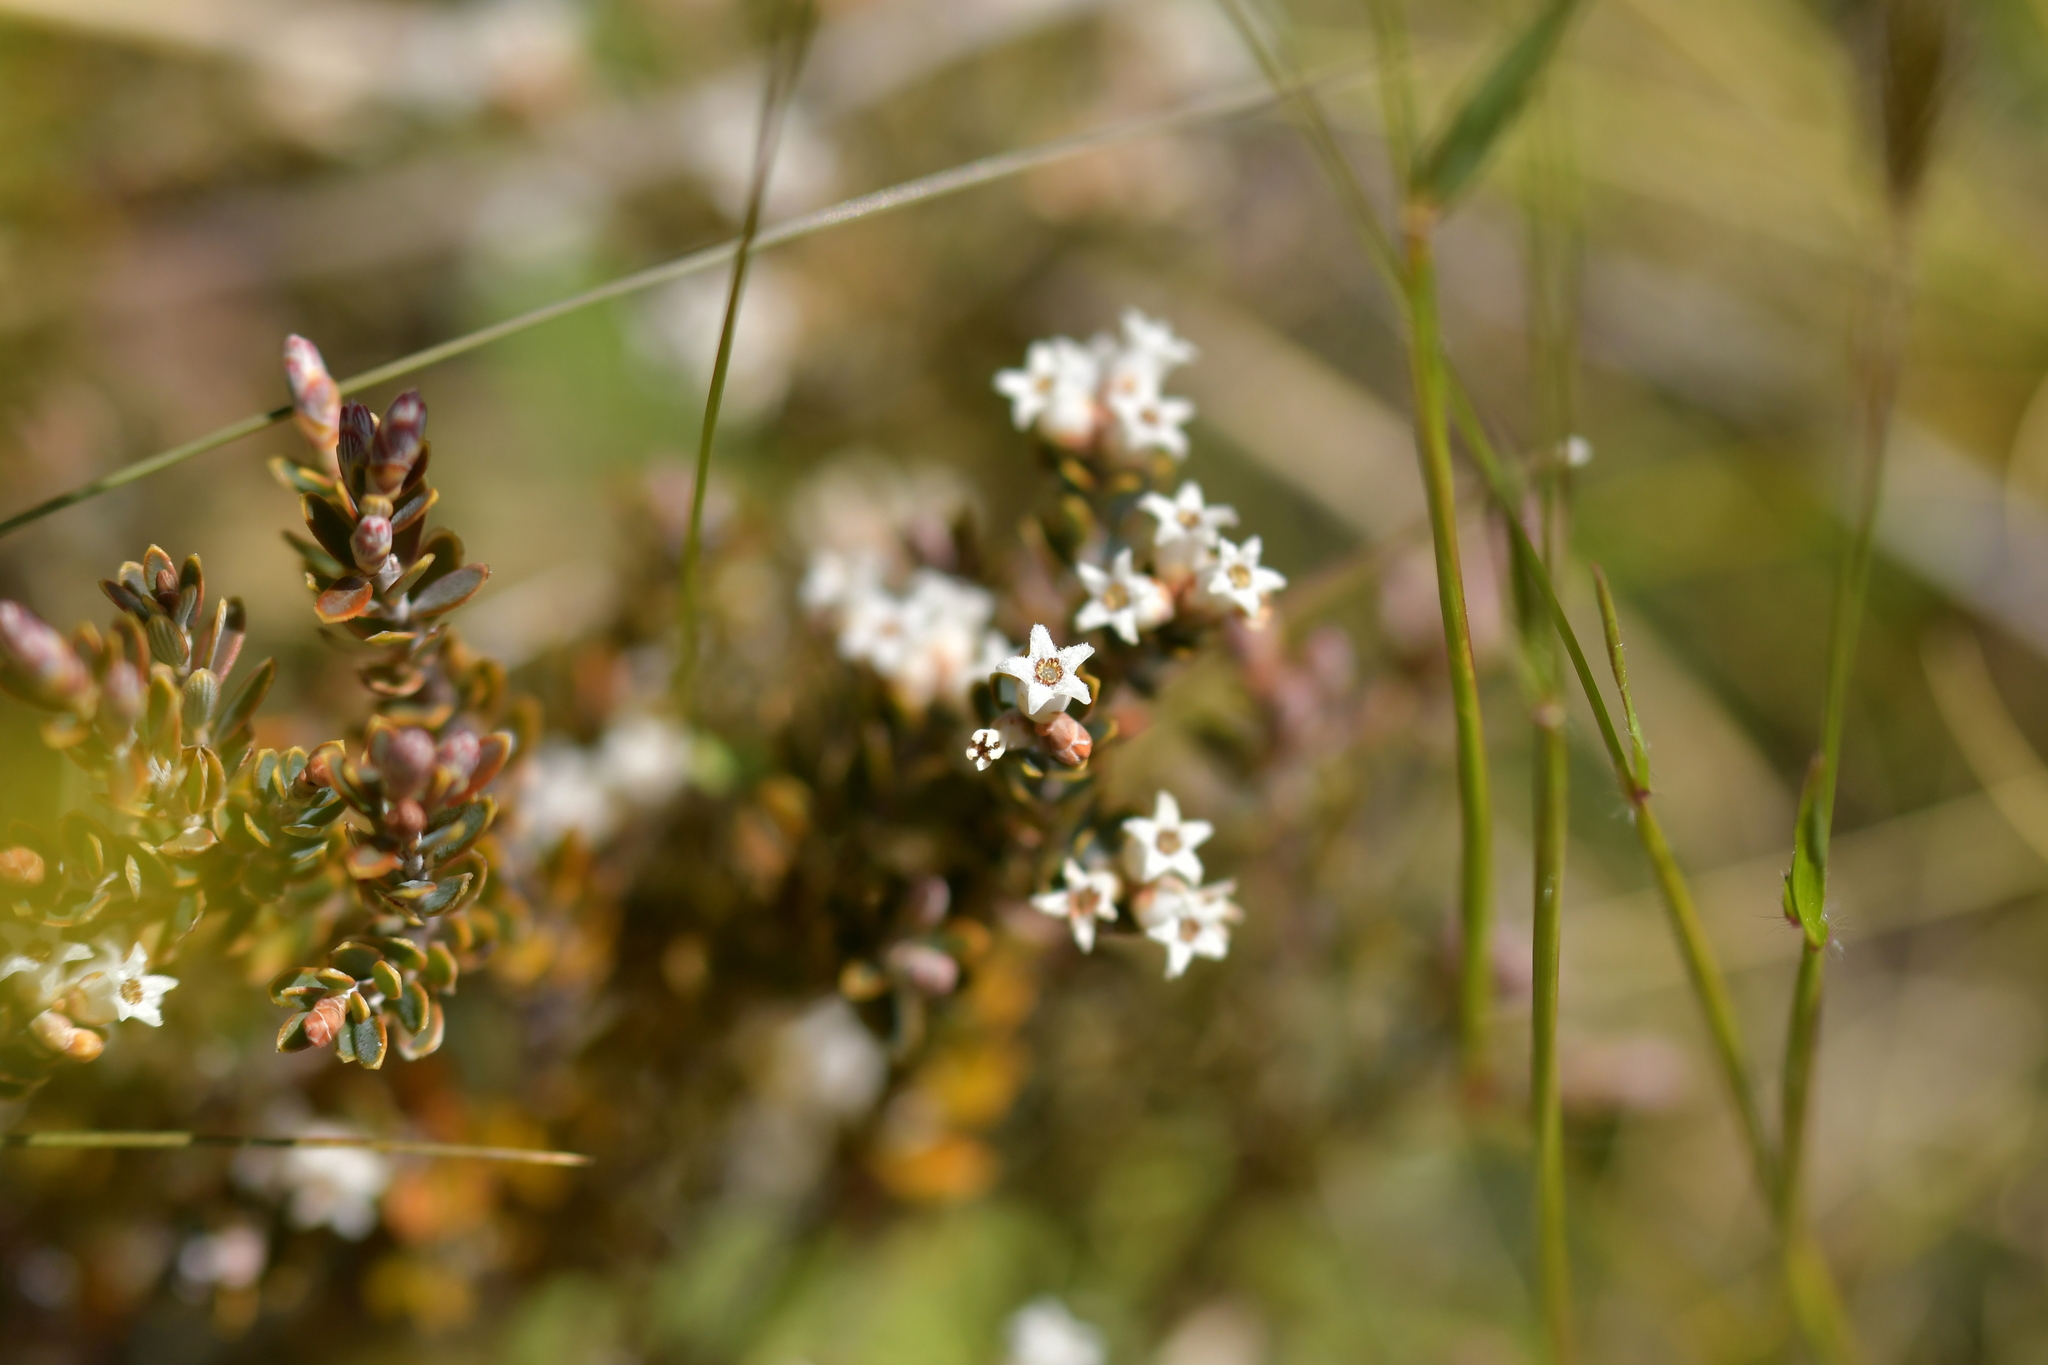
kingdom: Plantae
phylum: Tracheophyta
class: Magnoliopsida
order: Ericales
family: Ericaceae
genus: Styphelia
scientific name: Styphelia nesophila
